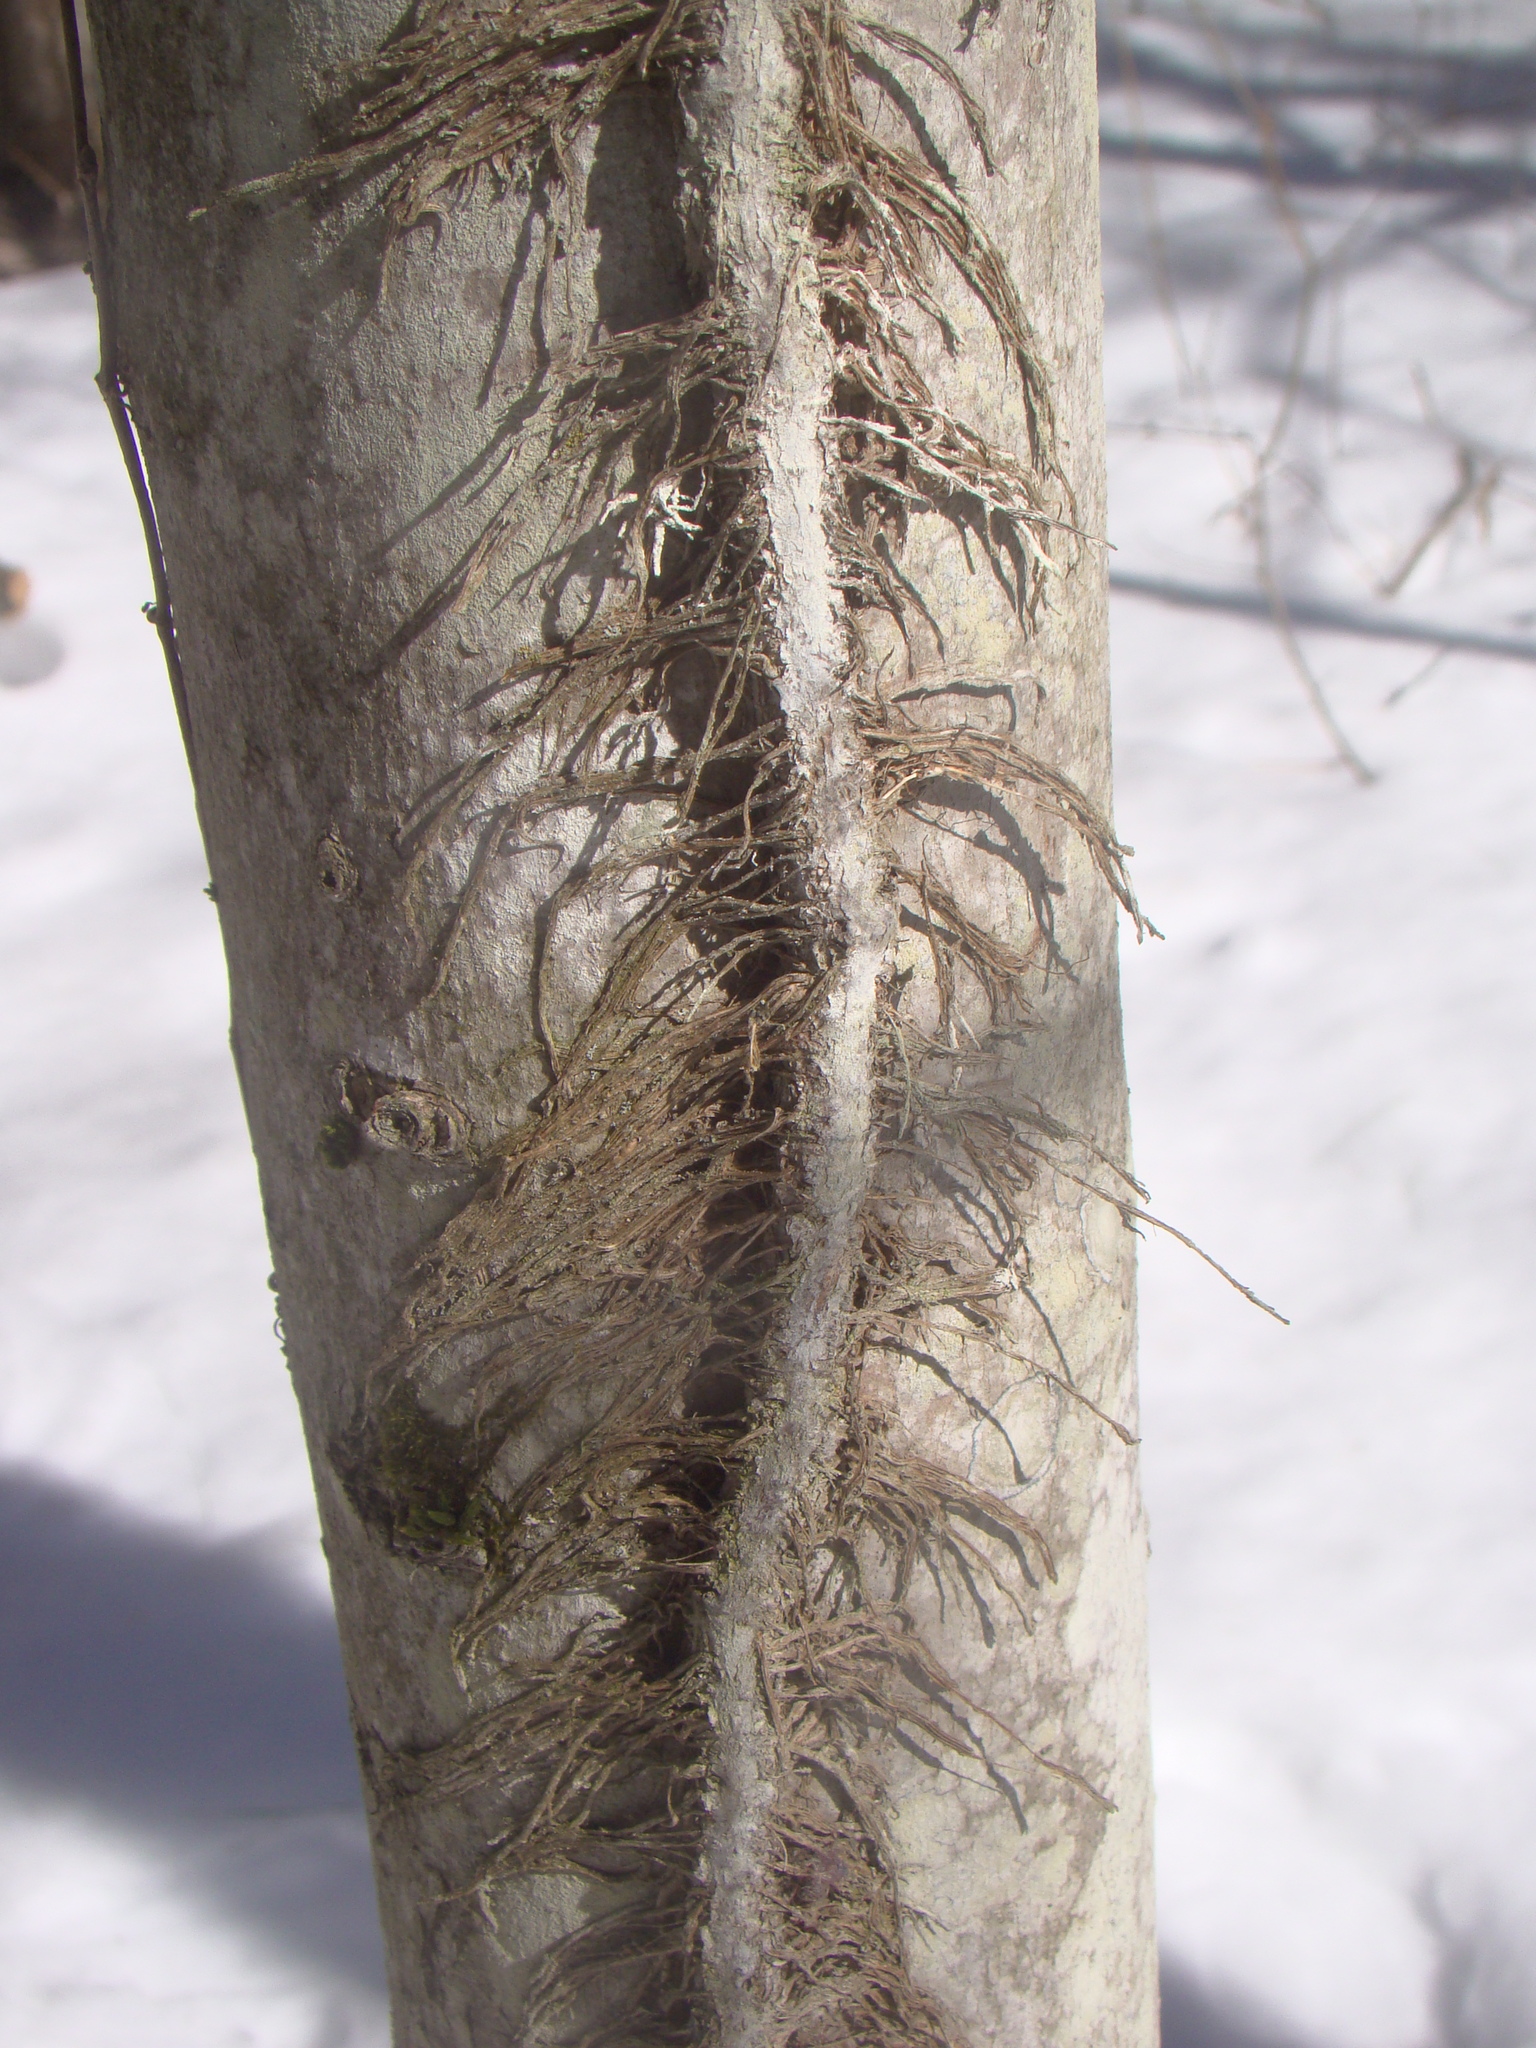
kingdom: Plantae
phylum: Tracheophyta
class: Magnoliopsida
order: Sapindales
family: Anacardiaceae
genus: Toxicodendron
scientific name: Toxicodendron radicans
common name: Poison ivy
